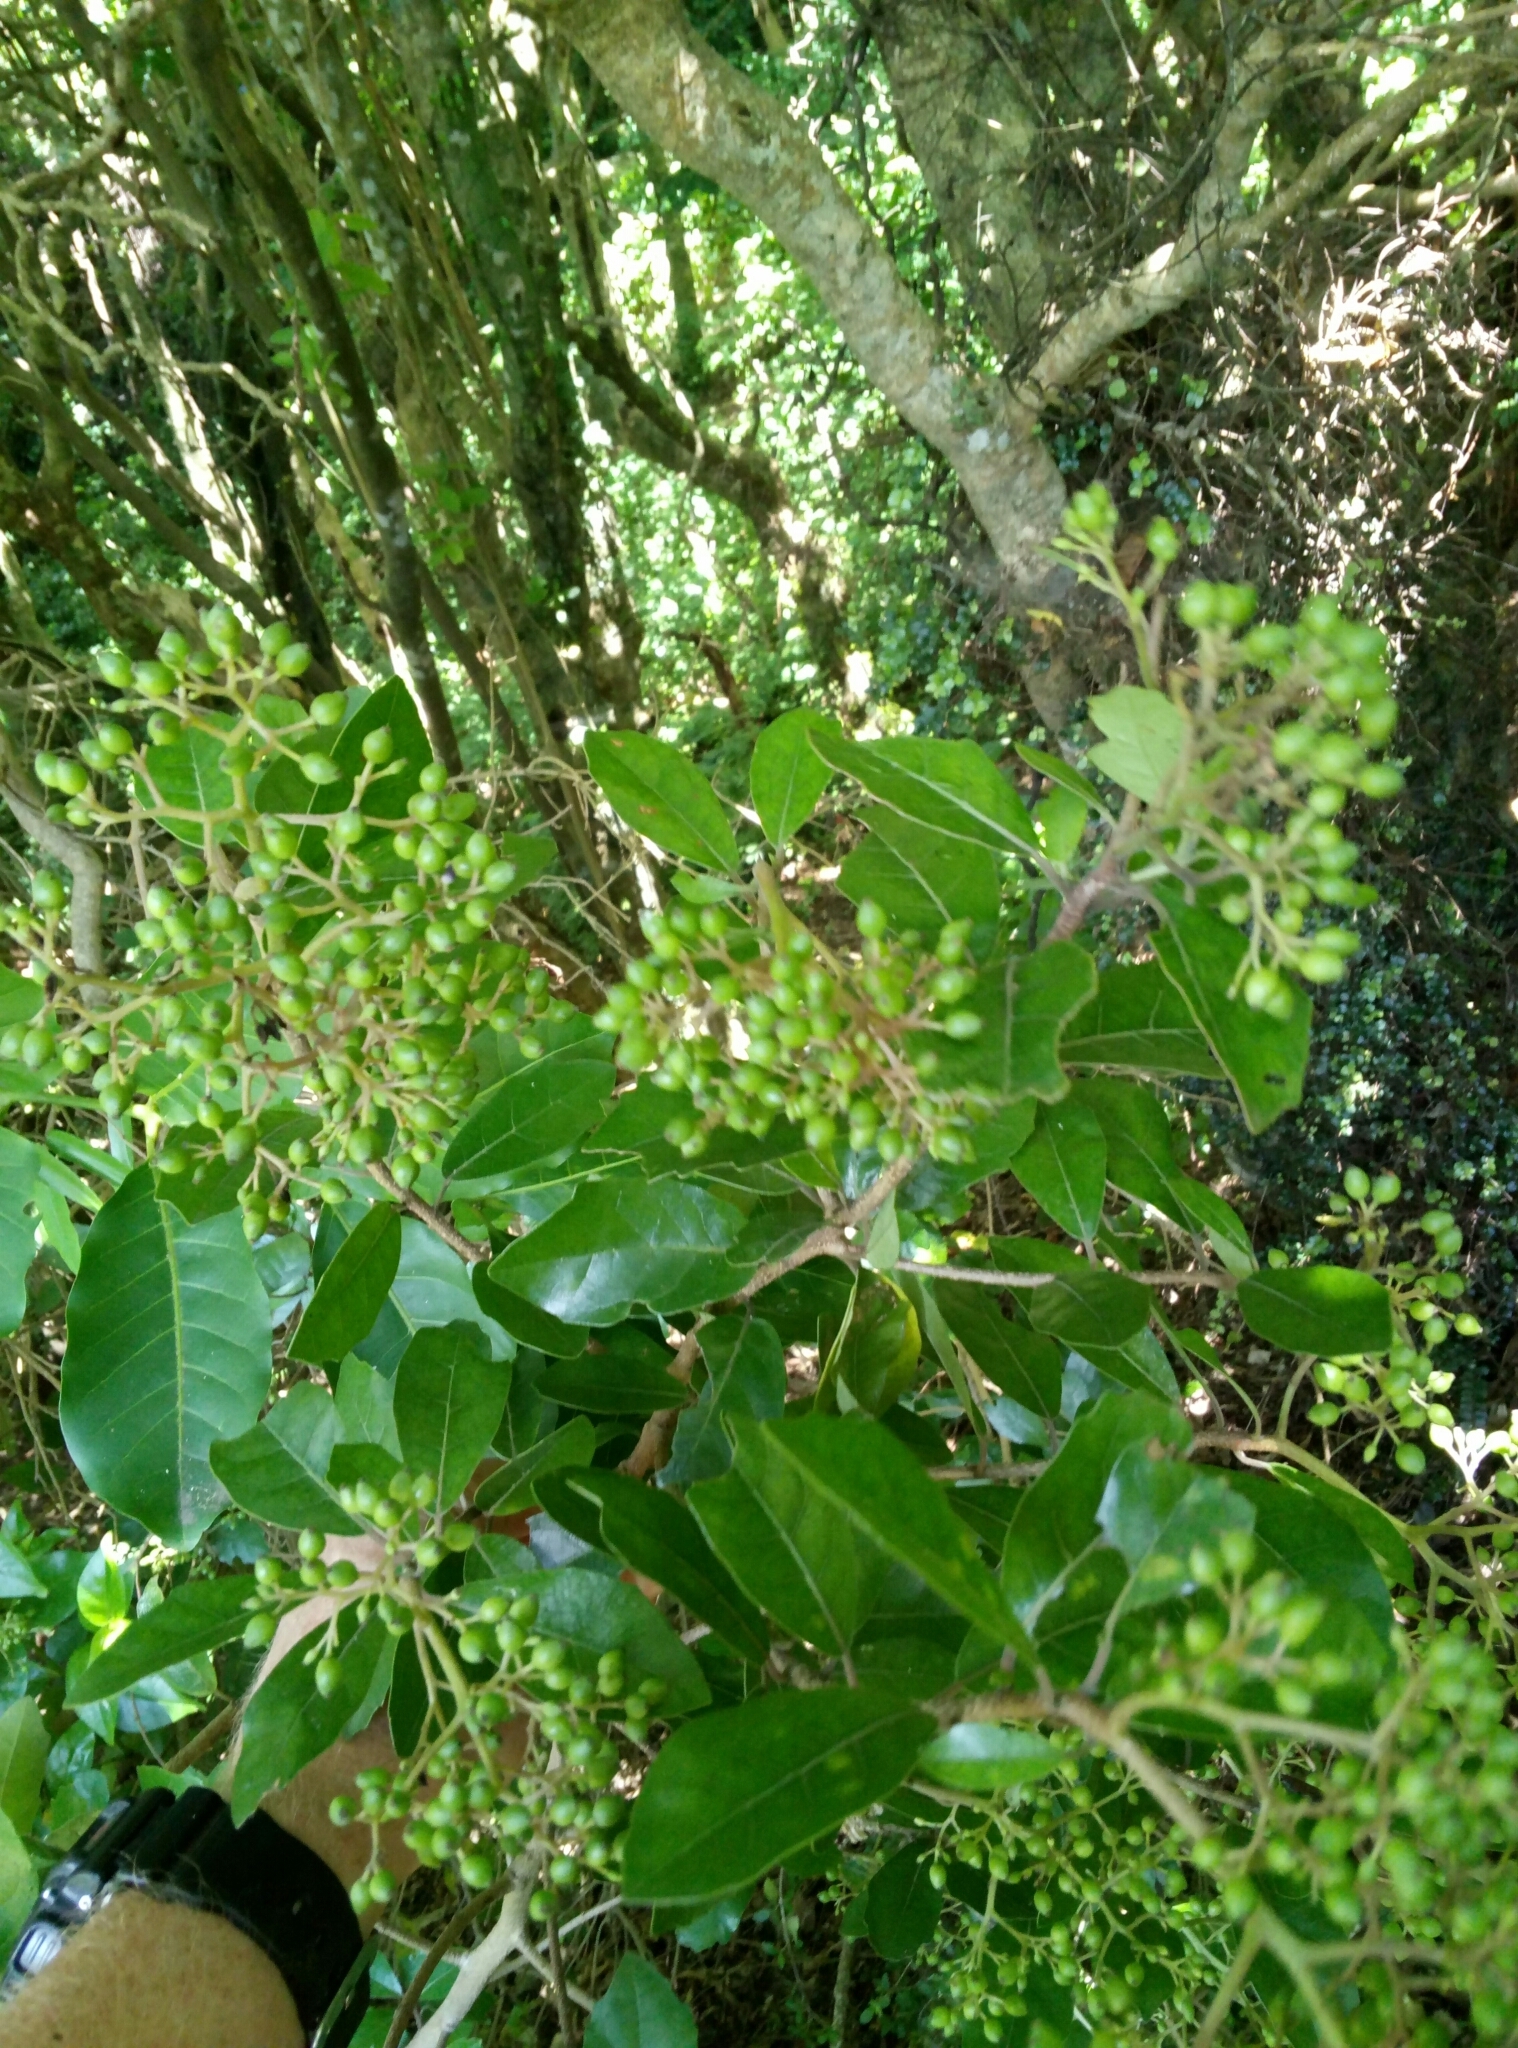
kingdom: Plantae
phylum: Tracheophyta
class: Magnoliopsida
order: Apiales
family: Pennantiaceae
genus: Pennantia
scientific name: Pennantia corymbosa
